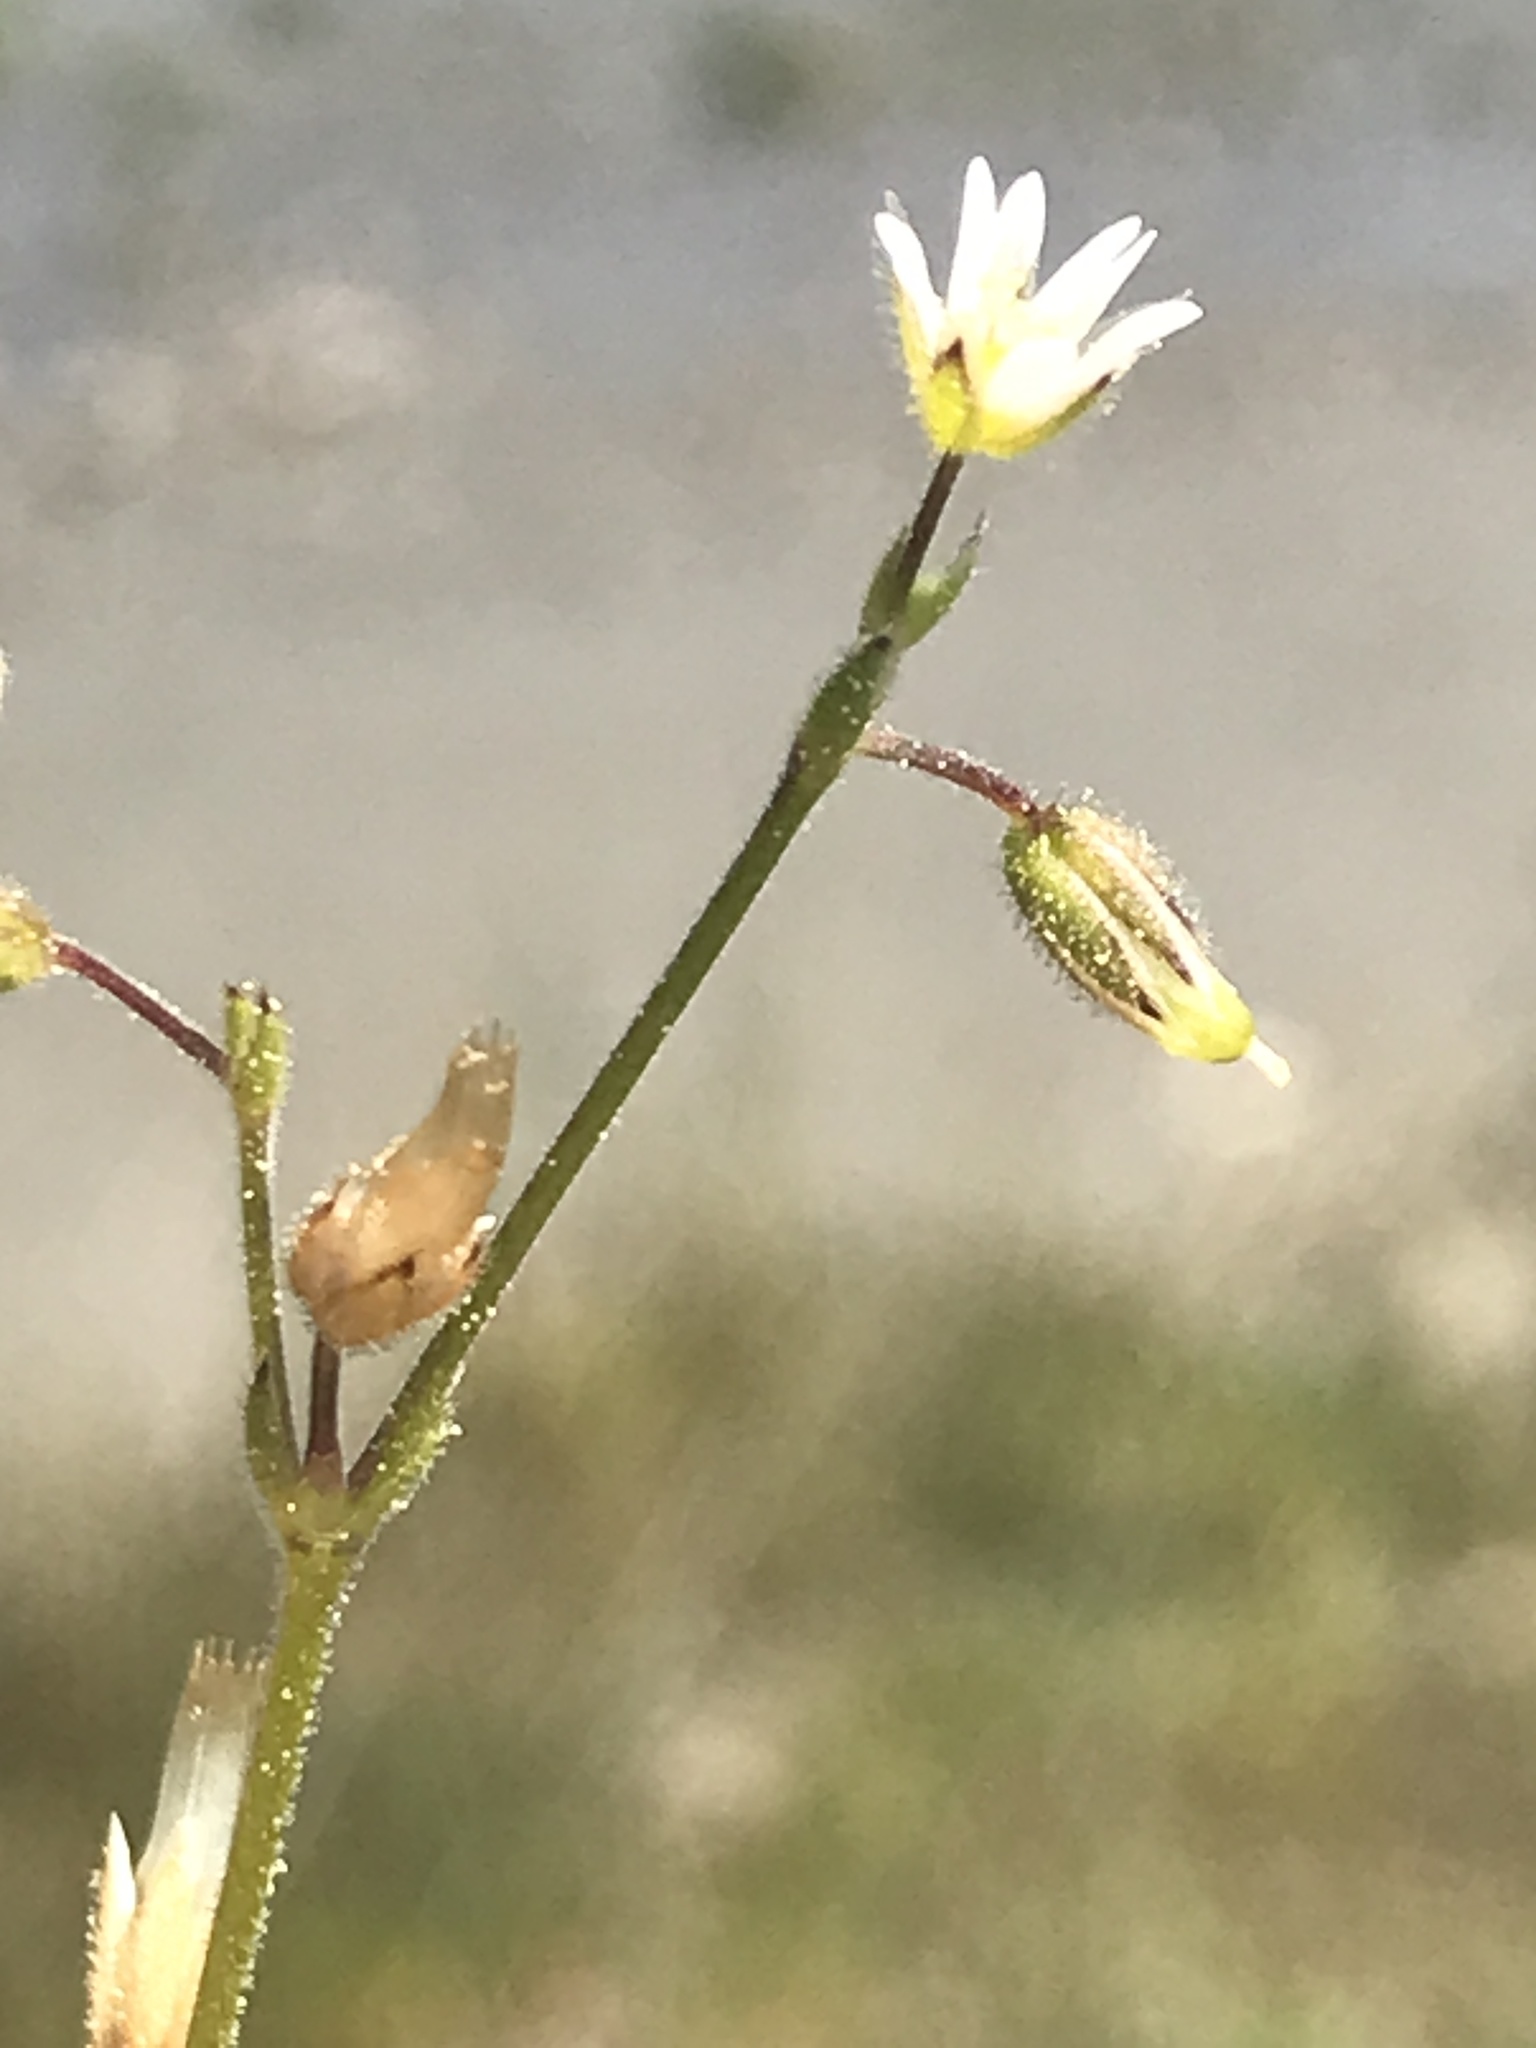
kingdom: Plantae
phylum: Tracheophyta
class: Magnoliopsida
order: Caryophyllales
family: Caryophyllaceae
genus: Cerastium
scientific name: Cerastium pumilum
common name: Dwarf mouse-ear
